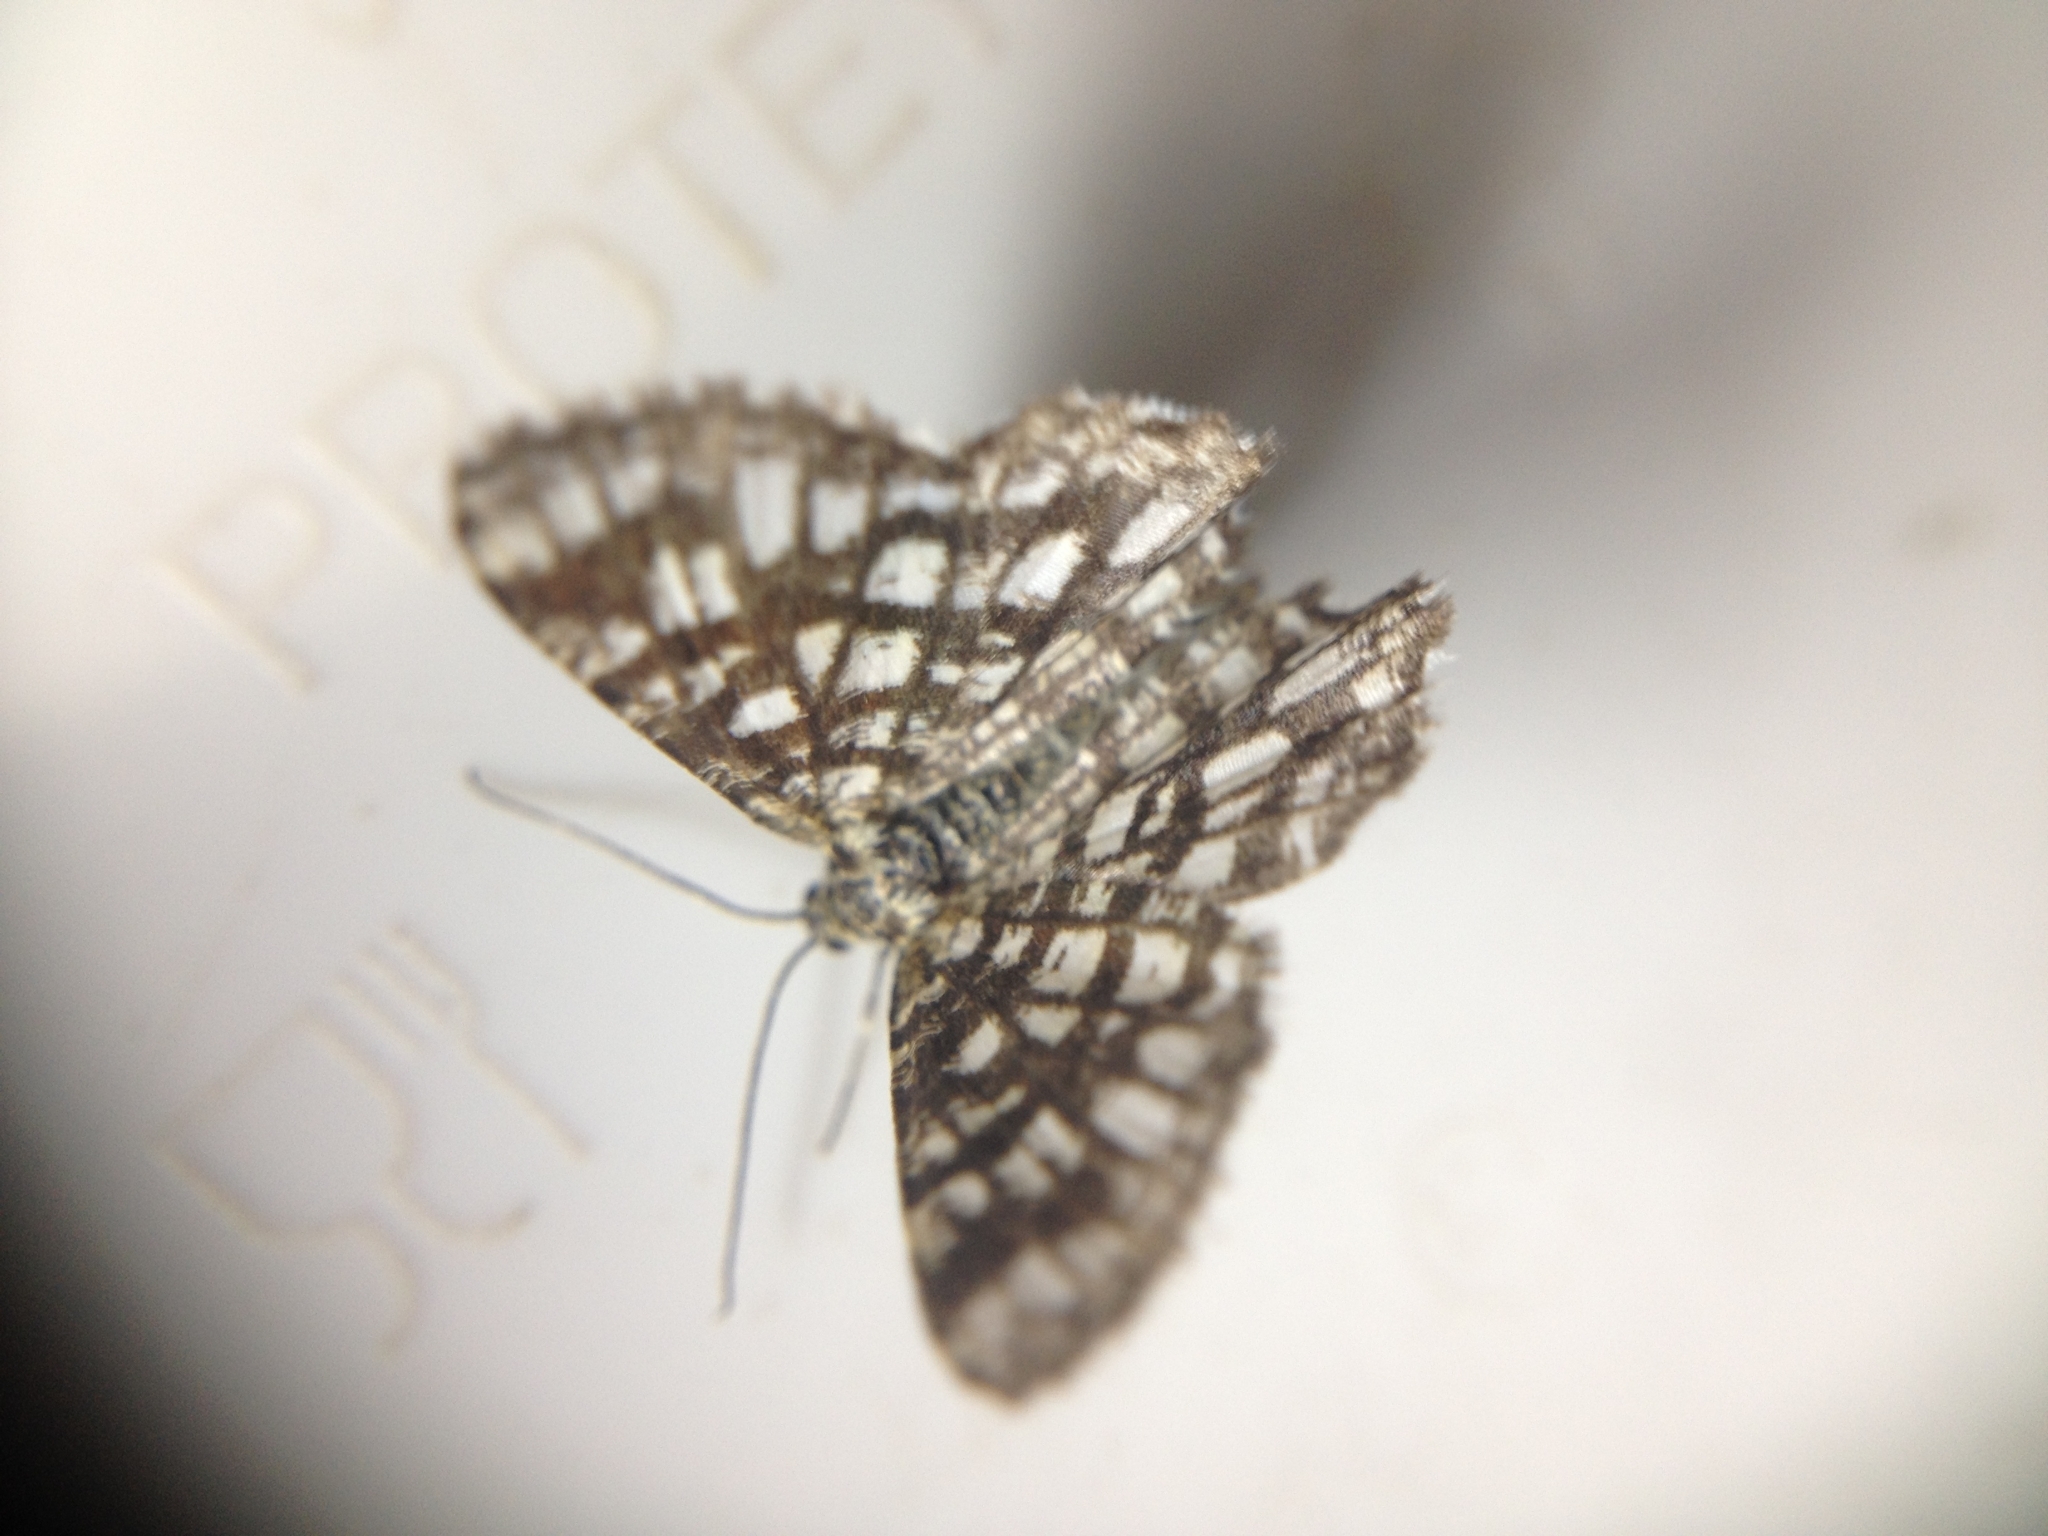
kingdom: Animalia
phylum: Arthropoda
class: Insecta
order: Lepidoptera
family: Geometridae
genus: Chiasmia
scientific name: Chiasmia clathrata
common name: Latticed heath
